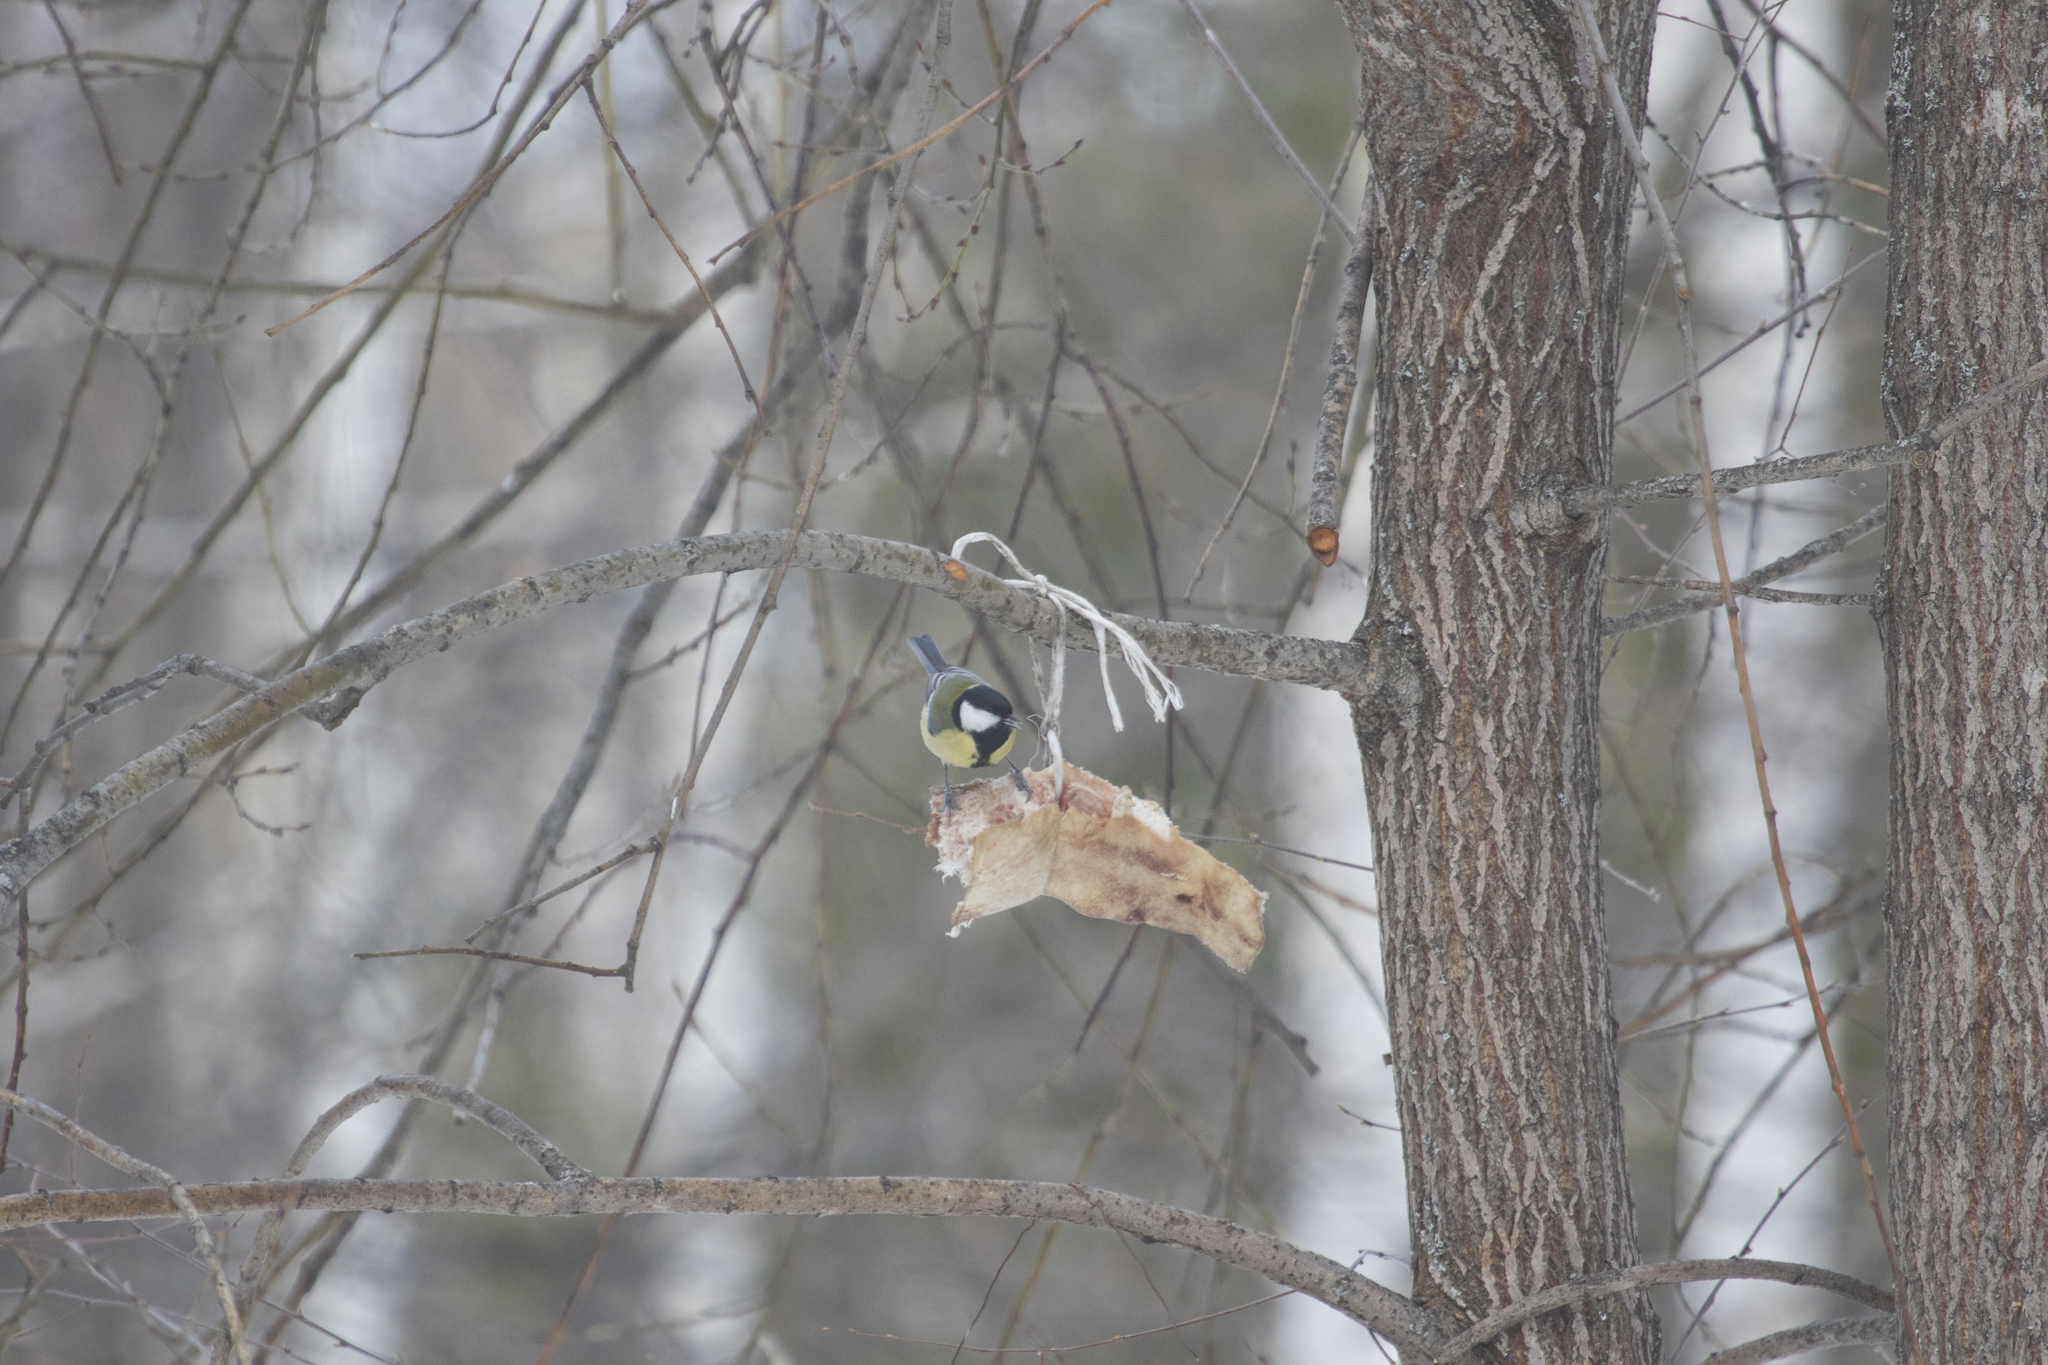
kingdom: Animalia
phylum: Chordata
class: Aves
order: Passeriformes
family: Paridae
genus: Parus
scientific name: Parus major
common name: Great tit
